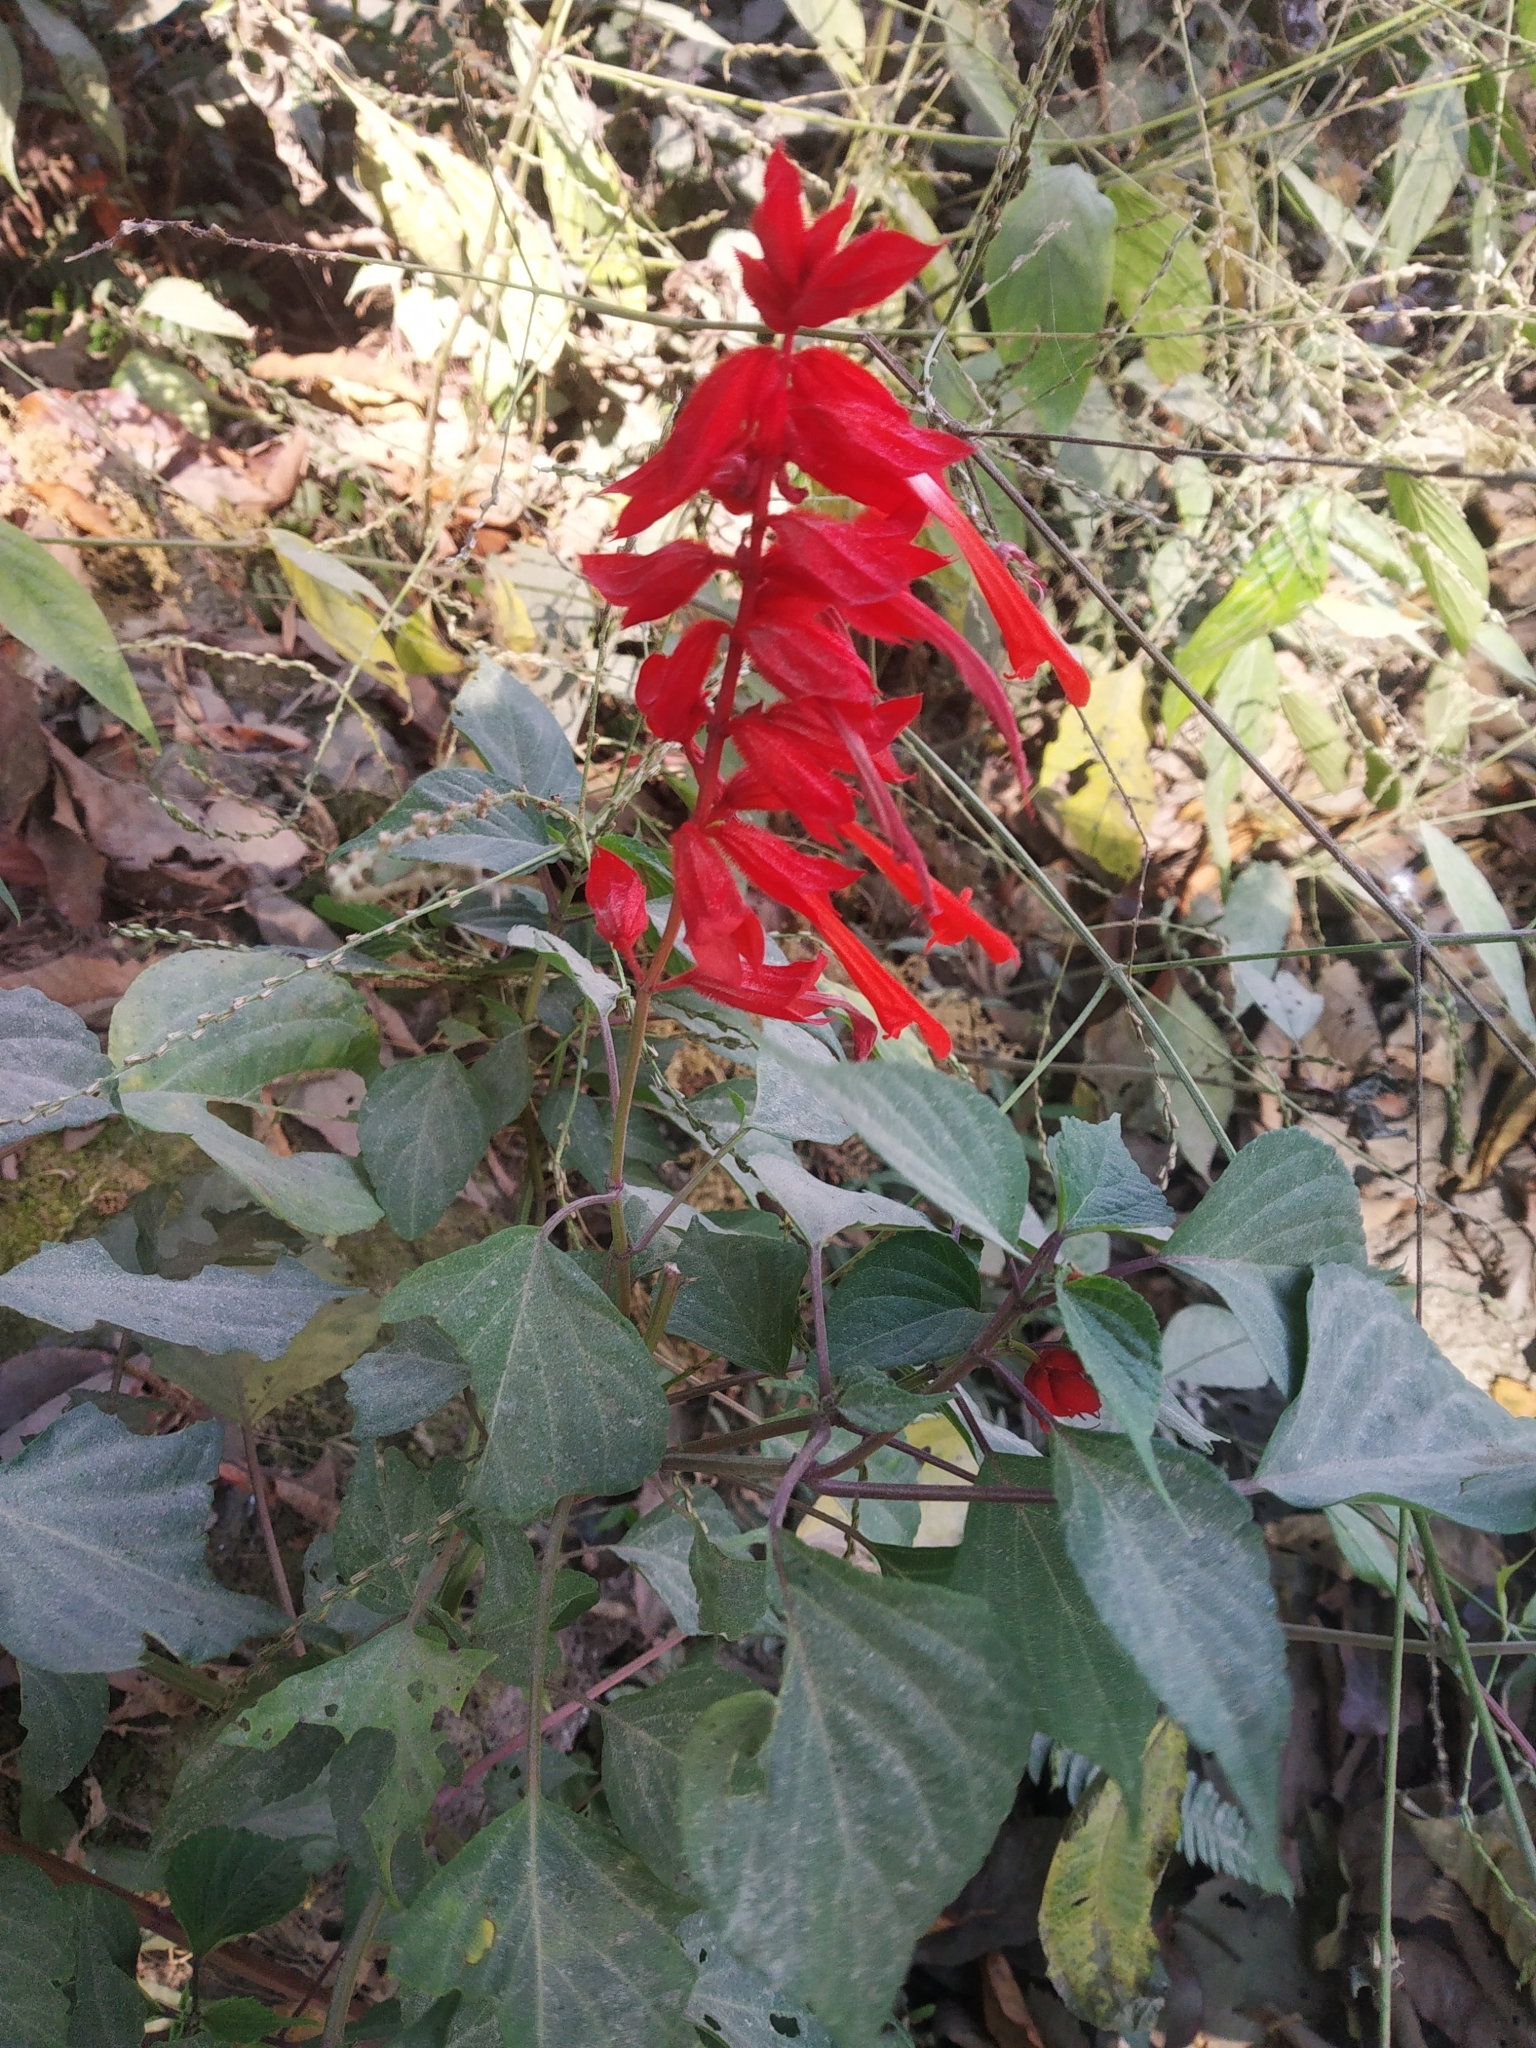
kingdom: Plantae
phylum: Tracheophyta
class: Magnoliopsida
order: Lamiales
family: Lamiaceae
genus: Salvia
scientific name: Salvia splendens
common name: Scarlet sage
